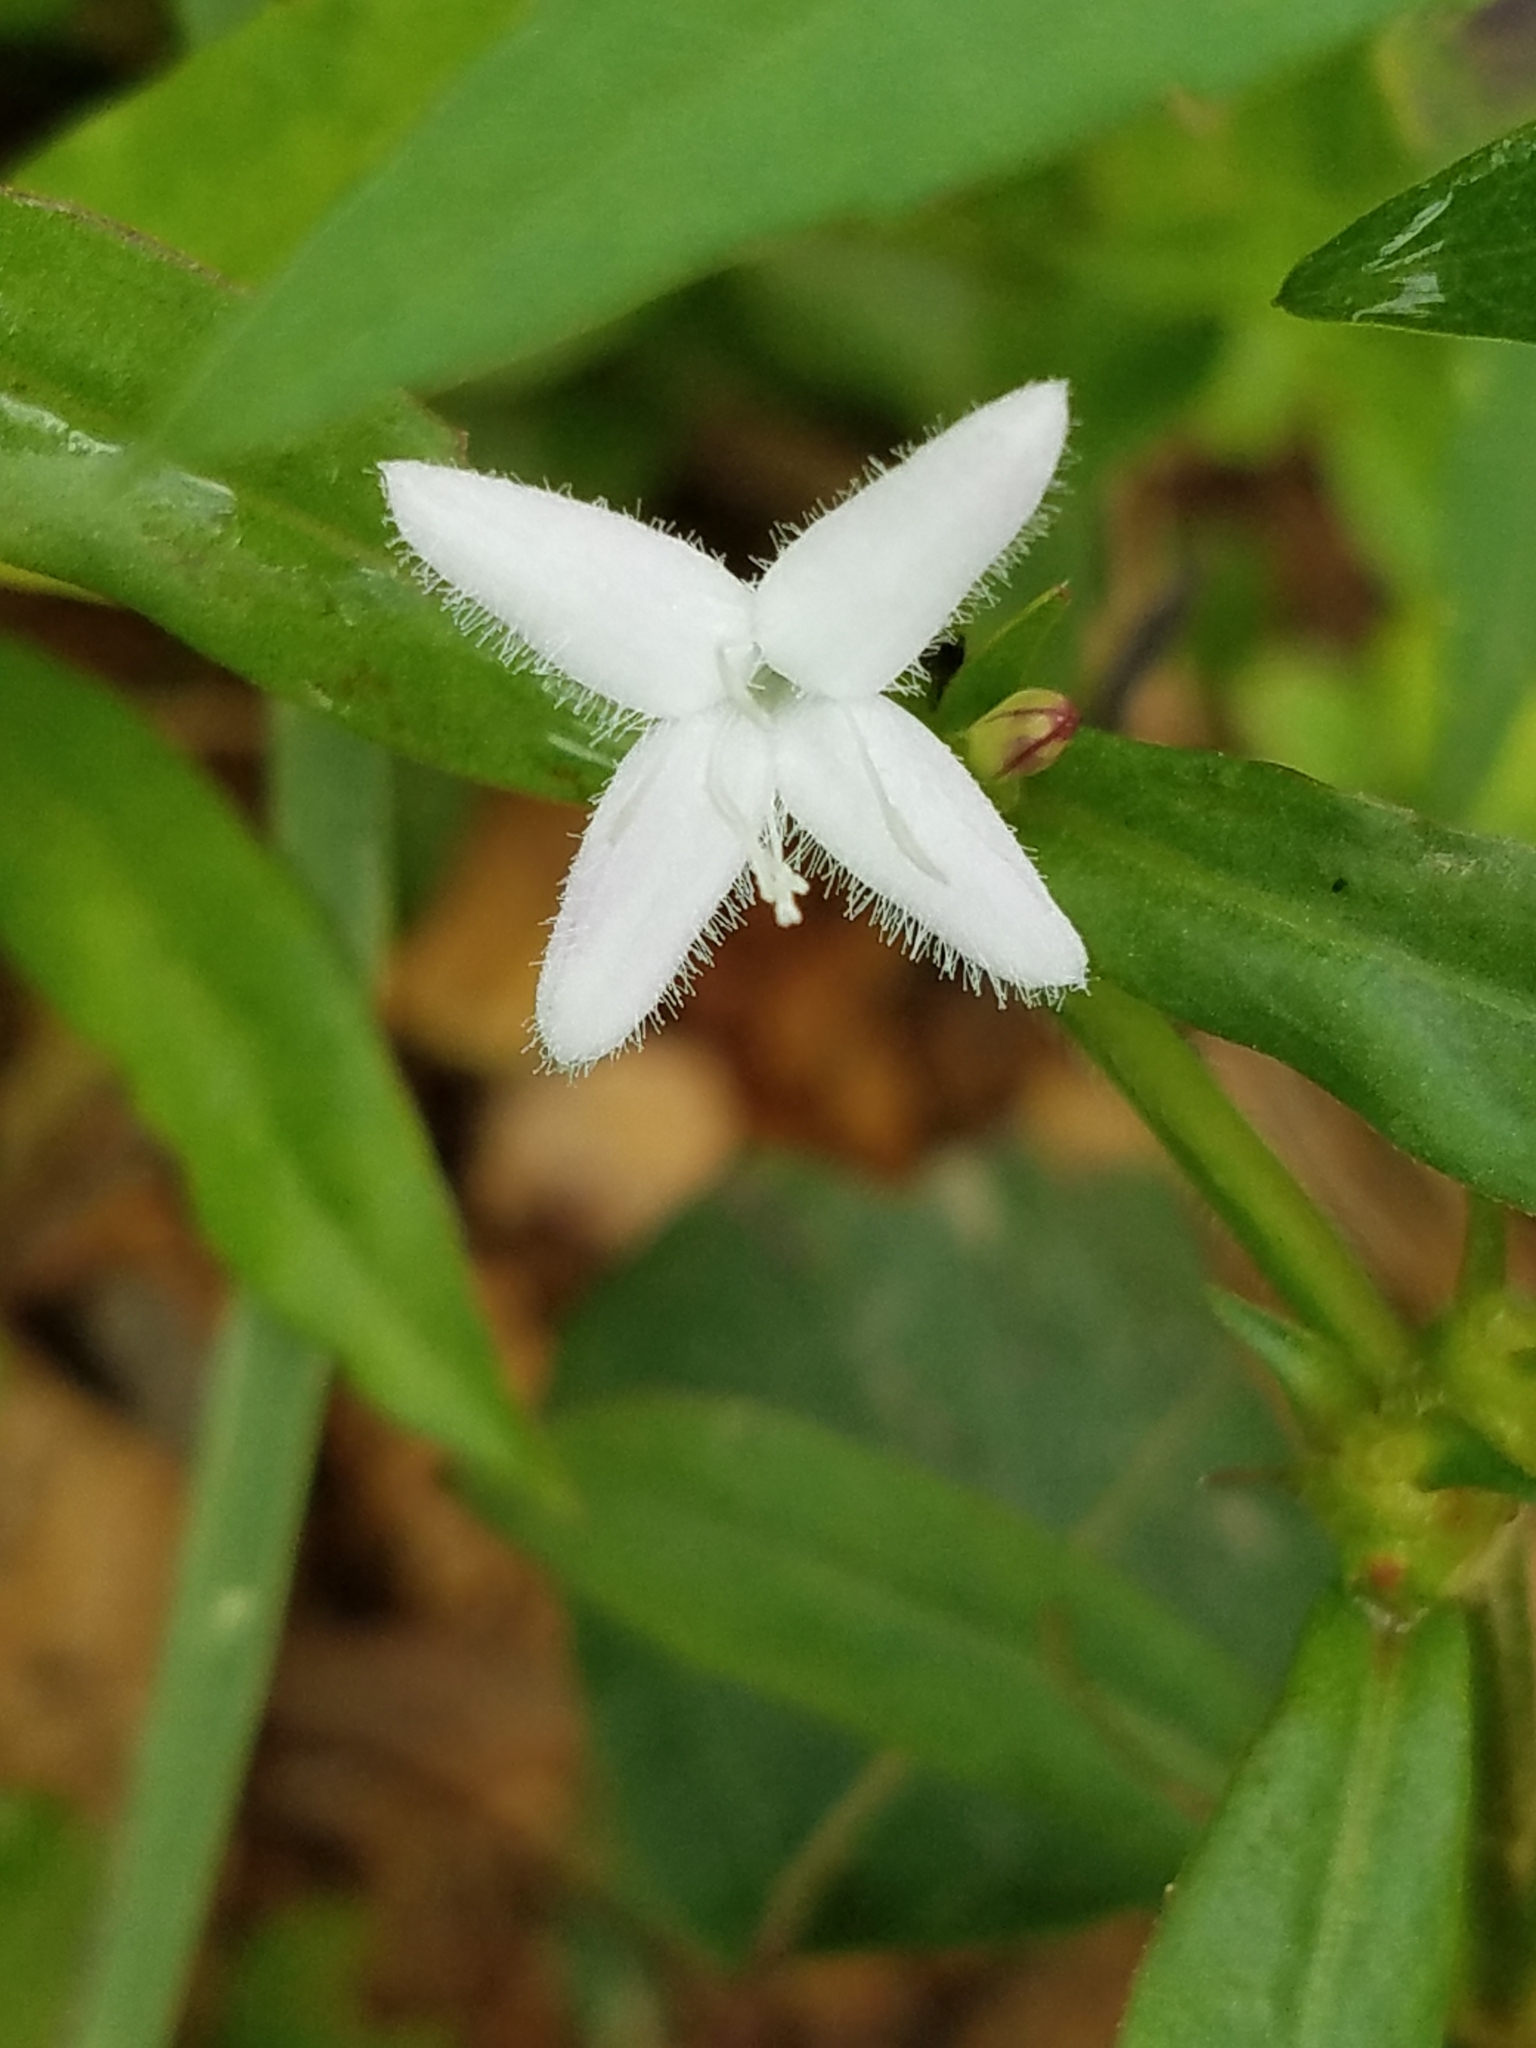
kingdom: Plantae
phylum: Tracheophyta
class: Magnoliopsida
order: Gentianales
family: Rubiaceae
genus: Diodia
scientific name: Diodia virginiana
